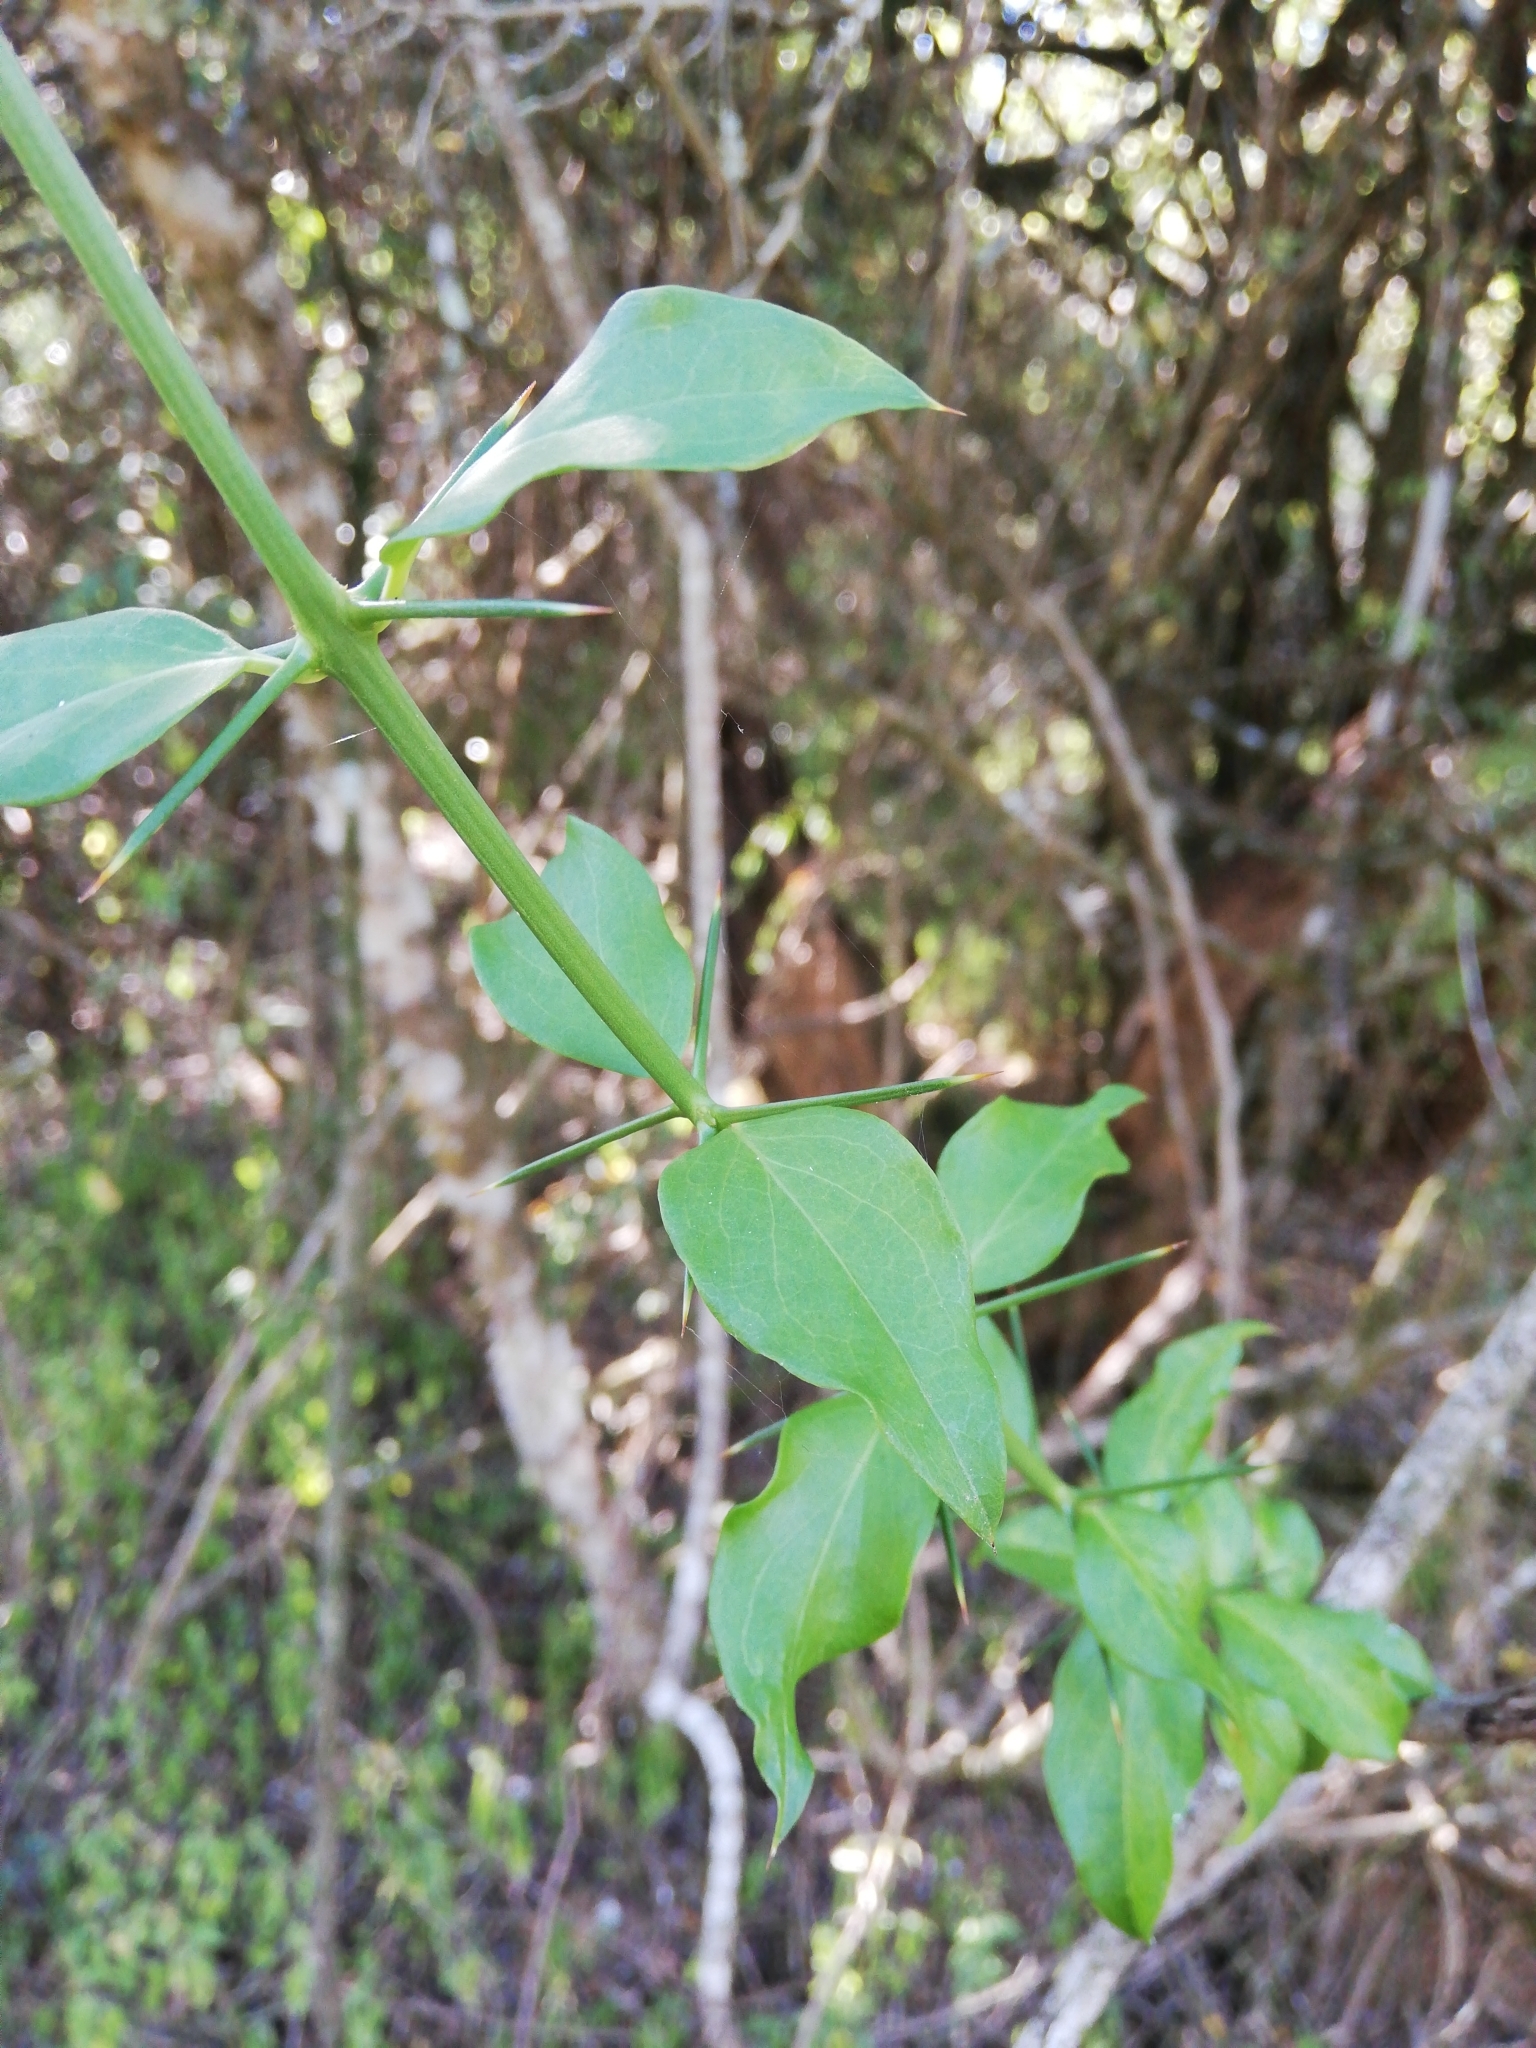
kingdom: Plantae
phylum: Tracheophyta
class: Magnoliopsida
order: Brassicales
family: Salvadoraceae
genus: Azima
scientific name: Azima tetracantha
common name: Needle bush
